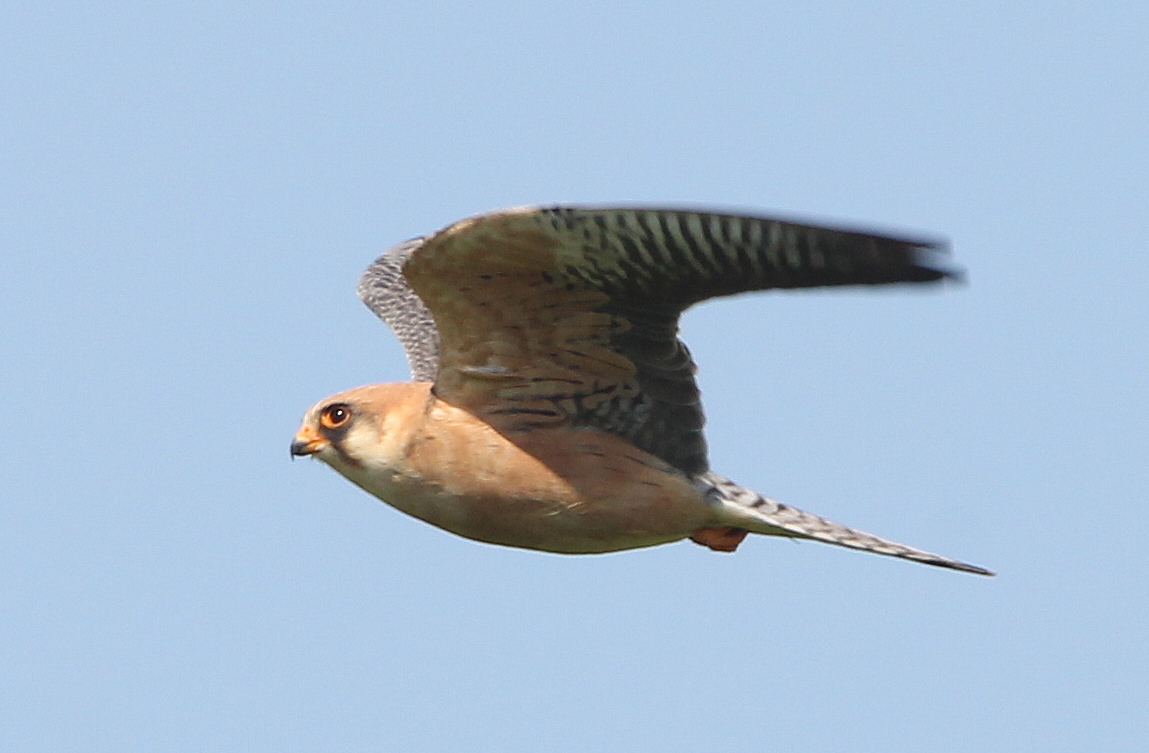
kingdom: Animalia
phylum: Chordata
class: Aves
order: Falconiformes
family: Falconidae
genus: Falco
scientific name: Falco vespertinus
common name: Red-footed falcon
